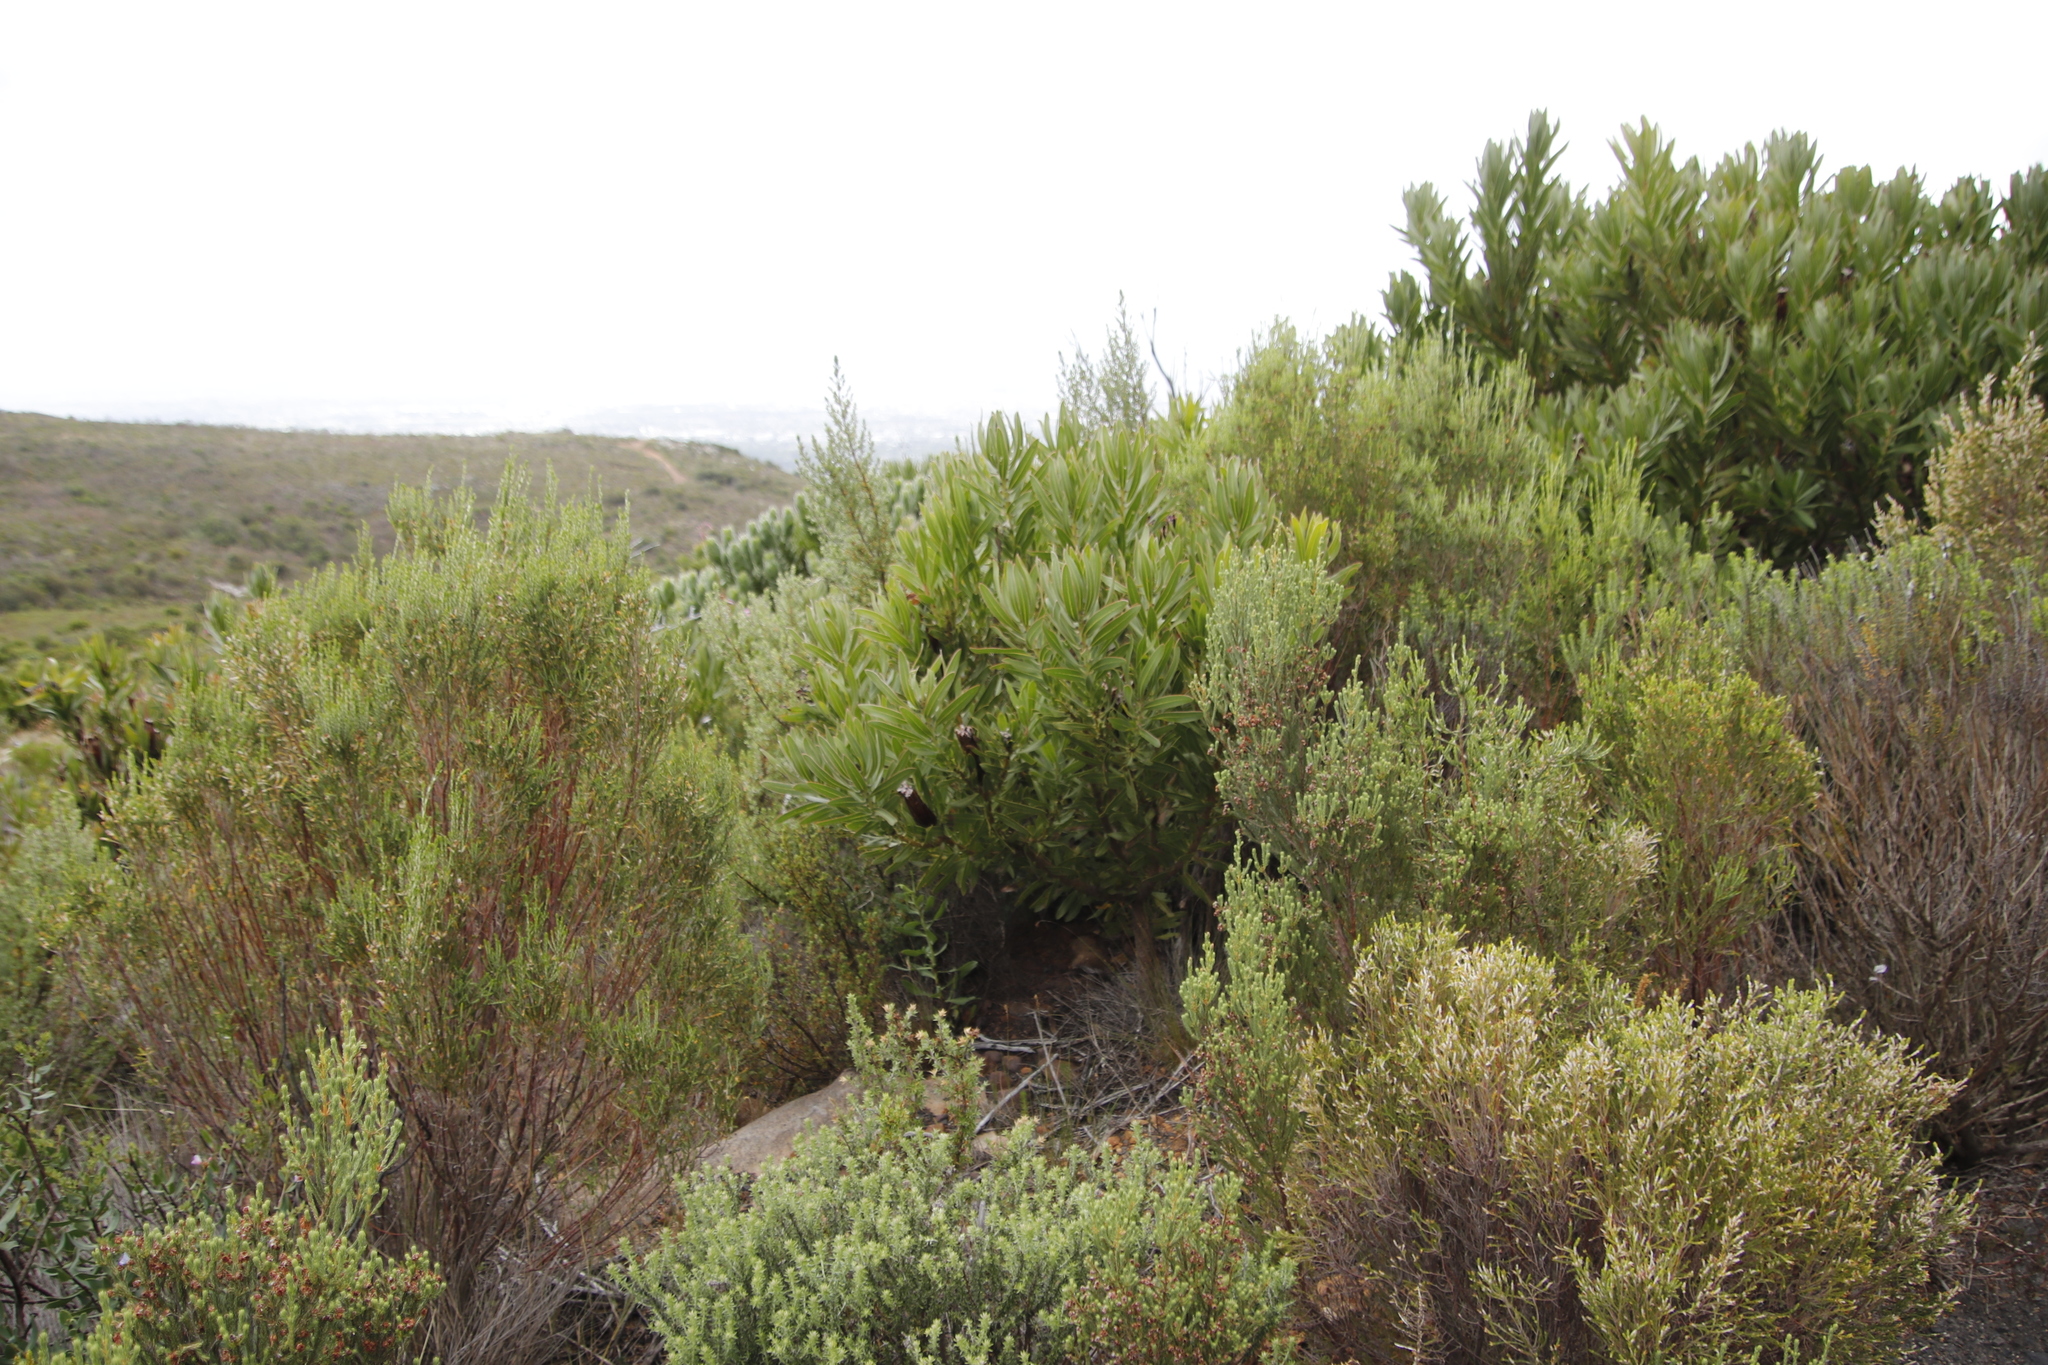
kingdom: Plantae
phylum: Tracheophyta
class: Magnoliopsida
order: Proteales
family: Proteaceae
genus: Protea
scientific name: Protea lepidocarpodendron
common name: Black-bearded protea
